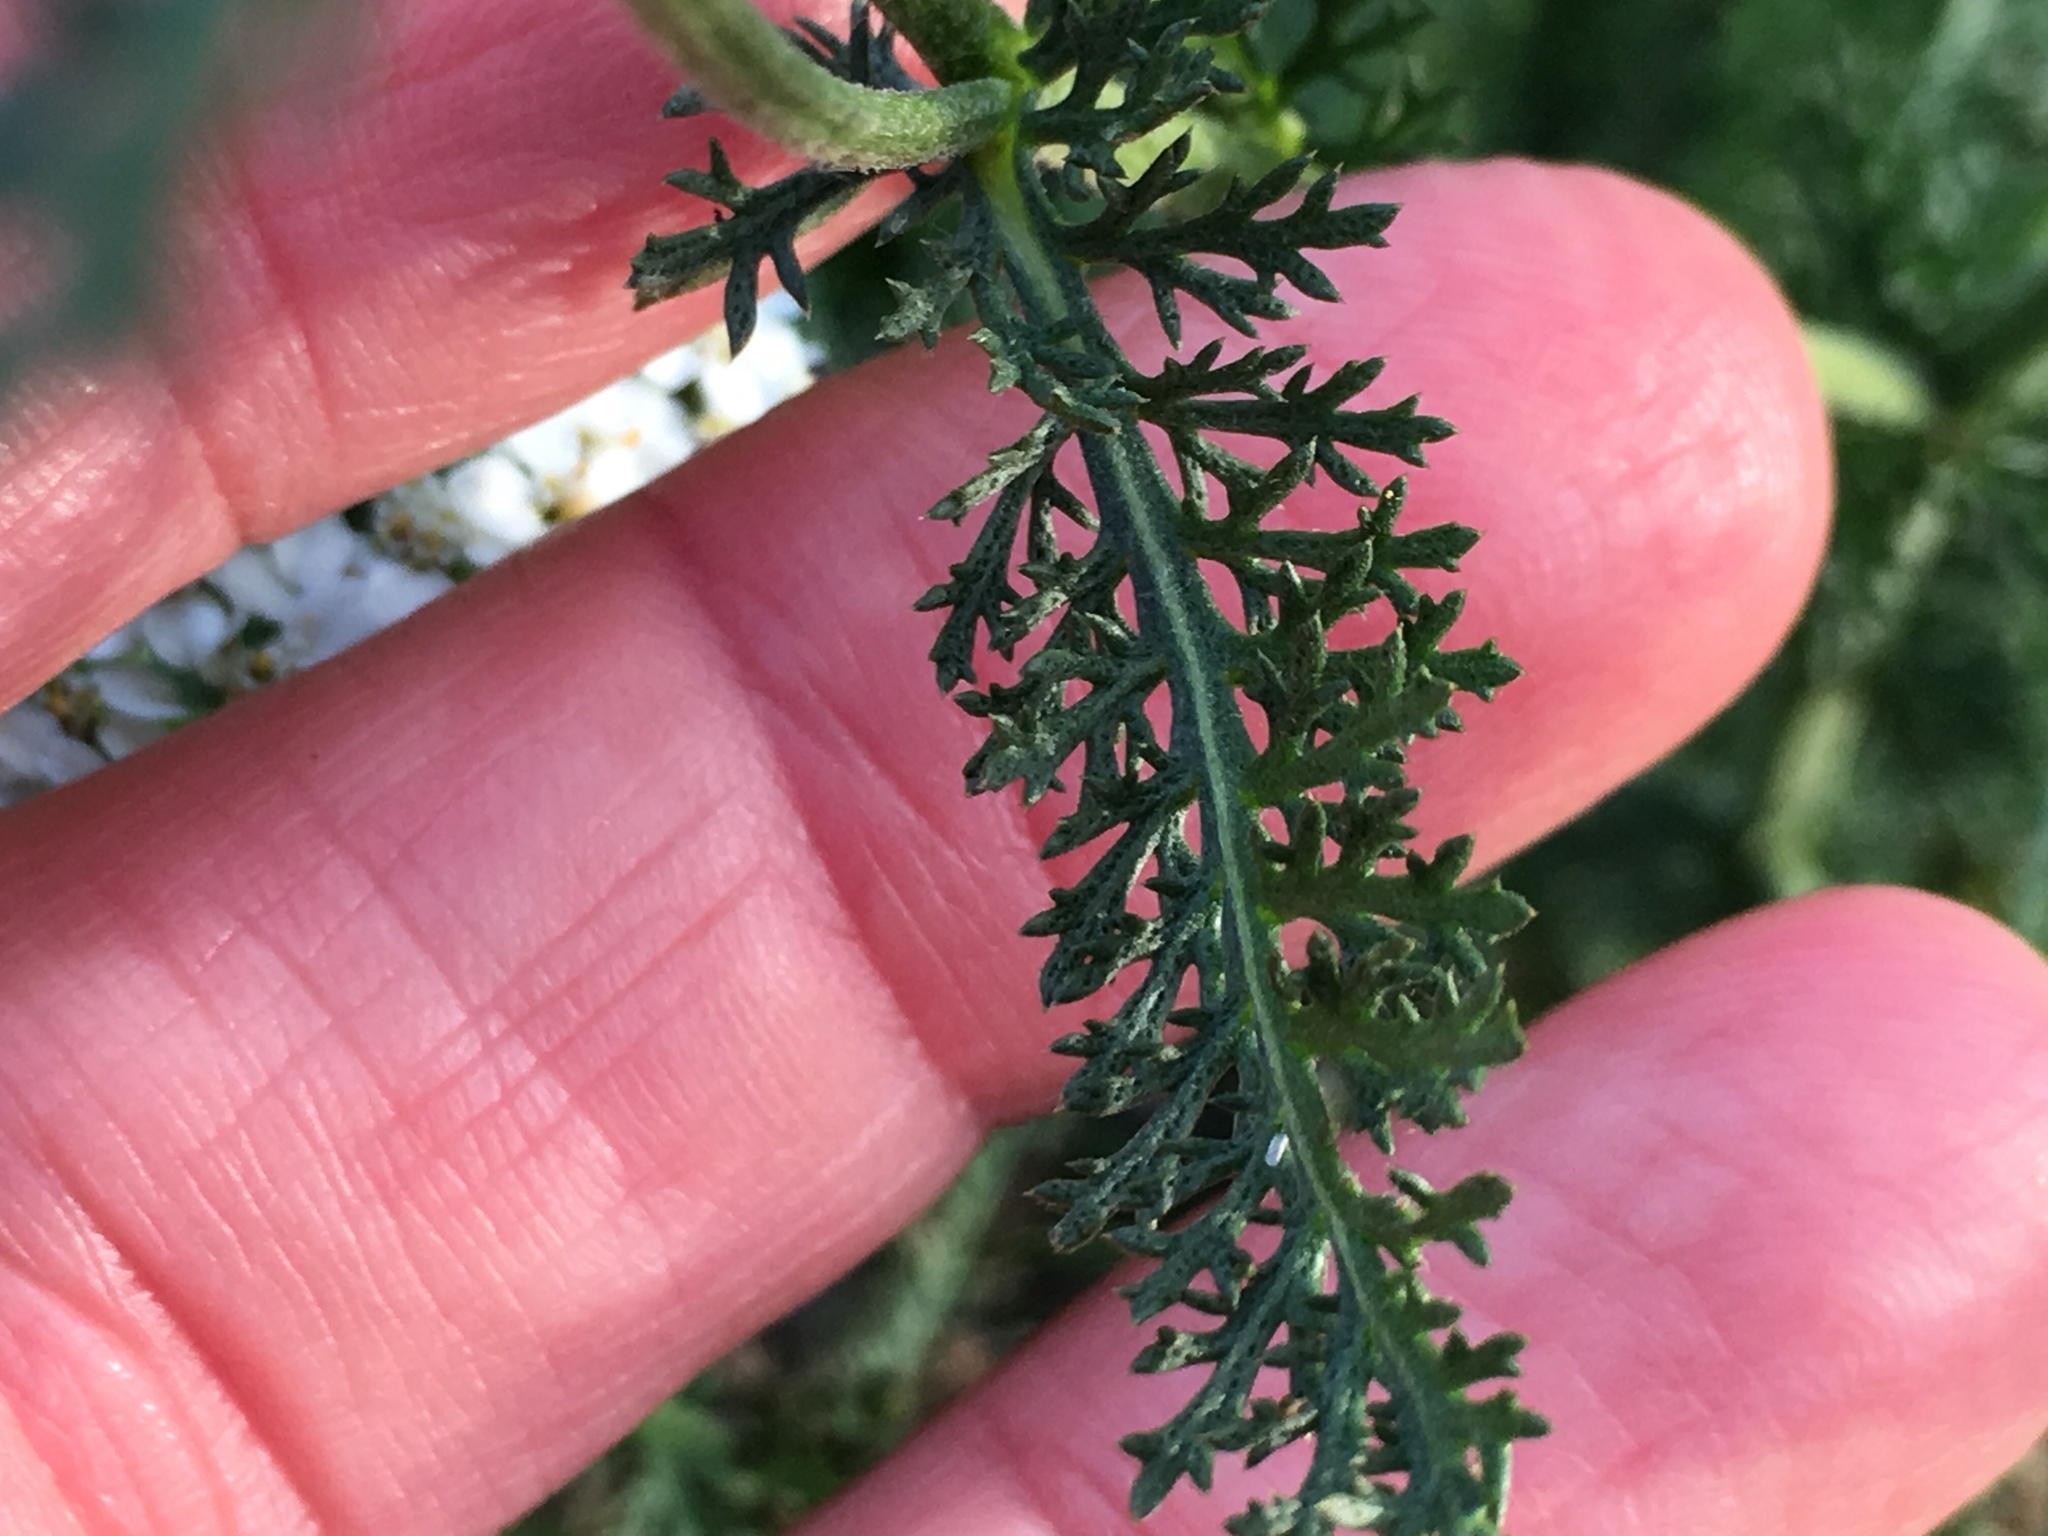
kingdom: Plantae
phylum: Tracheophyta
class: Magnoliopsida
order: Asterales
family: Asteraceae
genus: Achillea
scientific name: Achillea millefolium
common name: Yarrow
